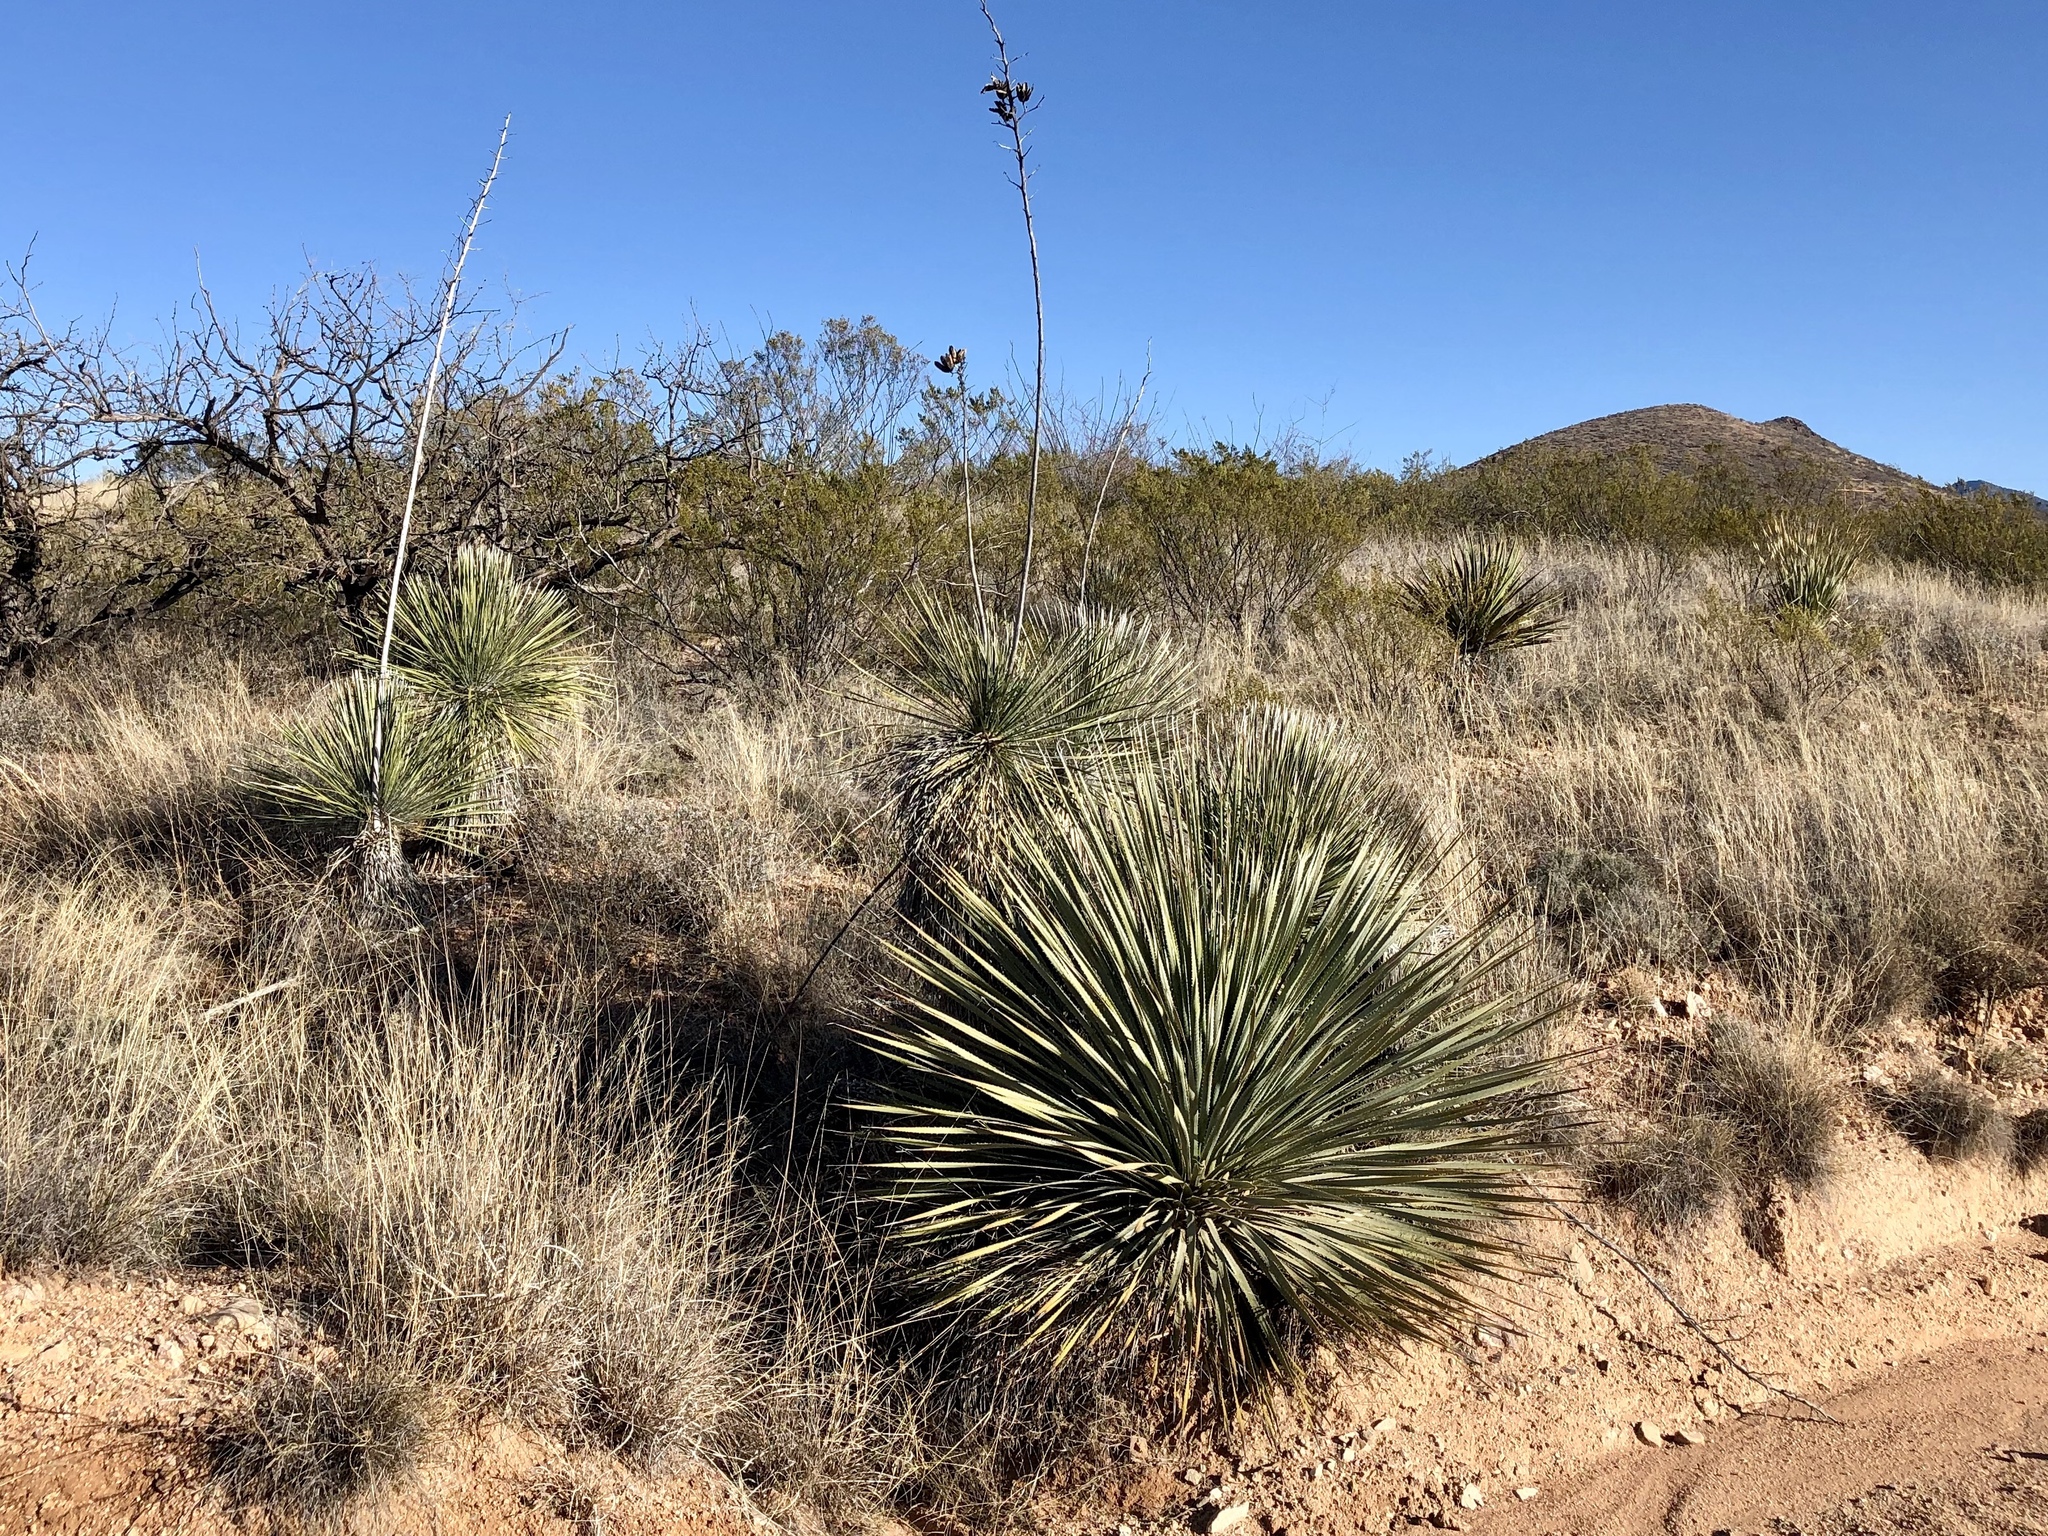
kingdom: Plantae
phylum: Tracheophyta
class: Liliopsida
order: Asparagales
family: Asparagaceae
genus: Dasylirion
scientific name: Dasylirion wheeleri
